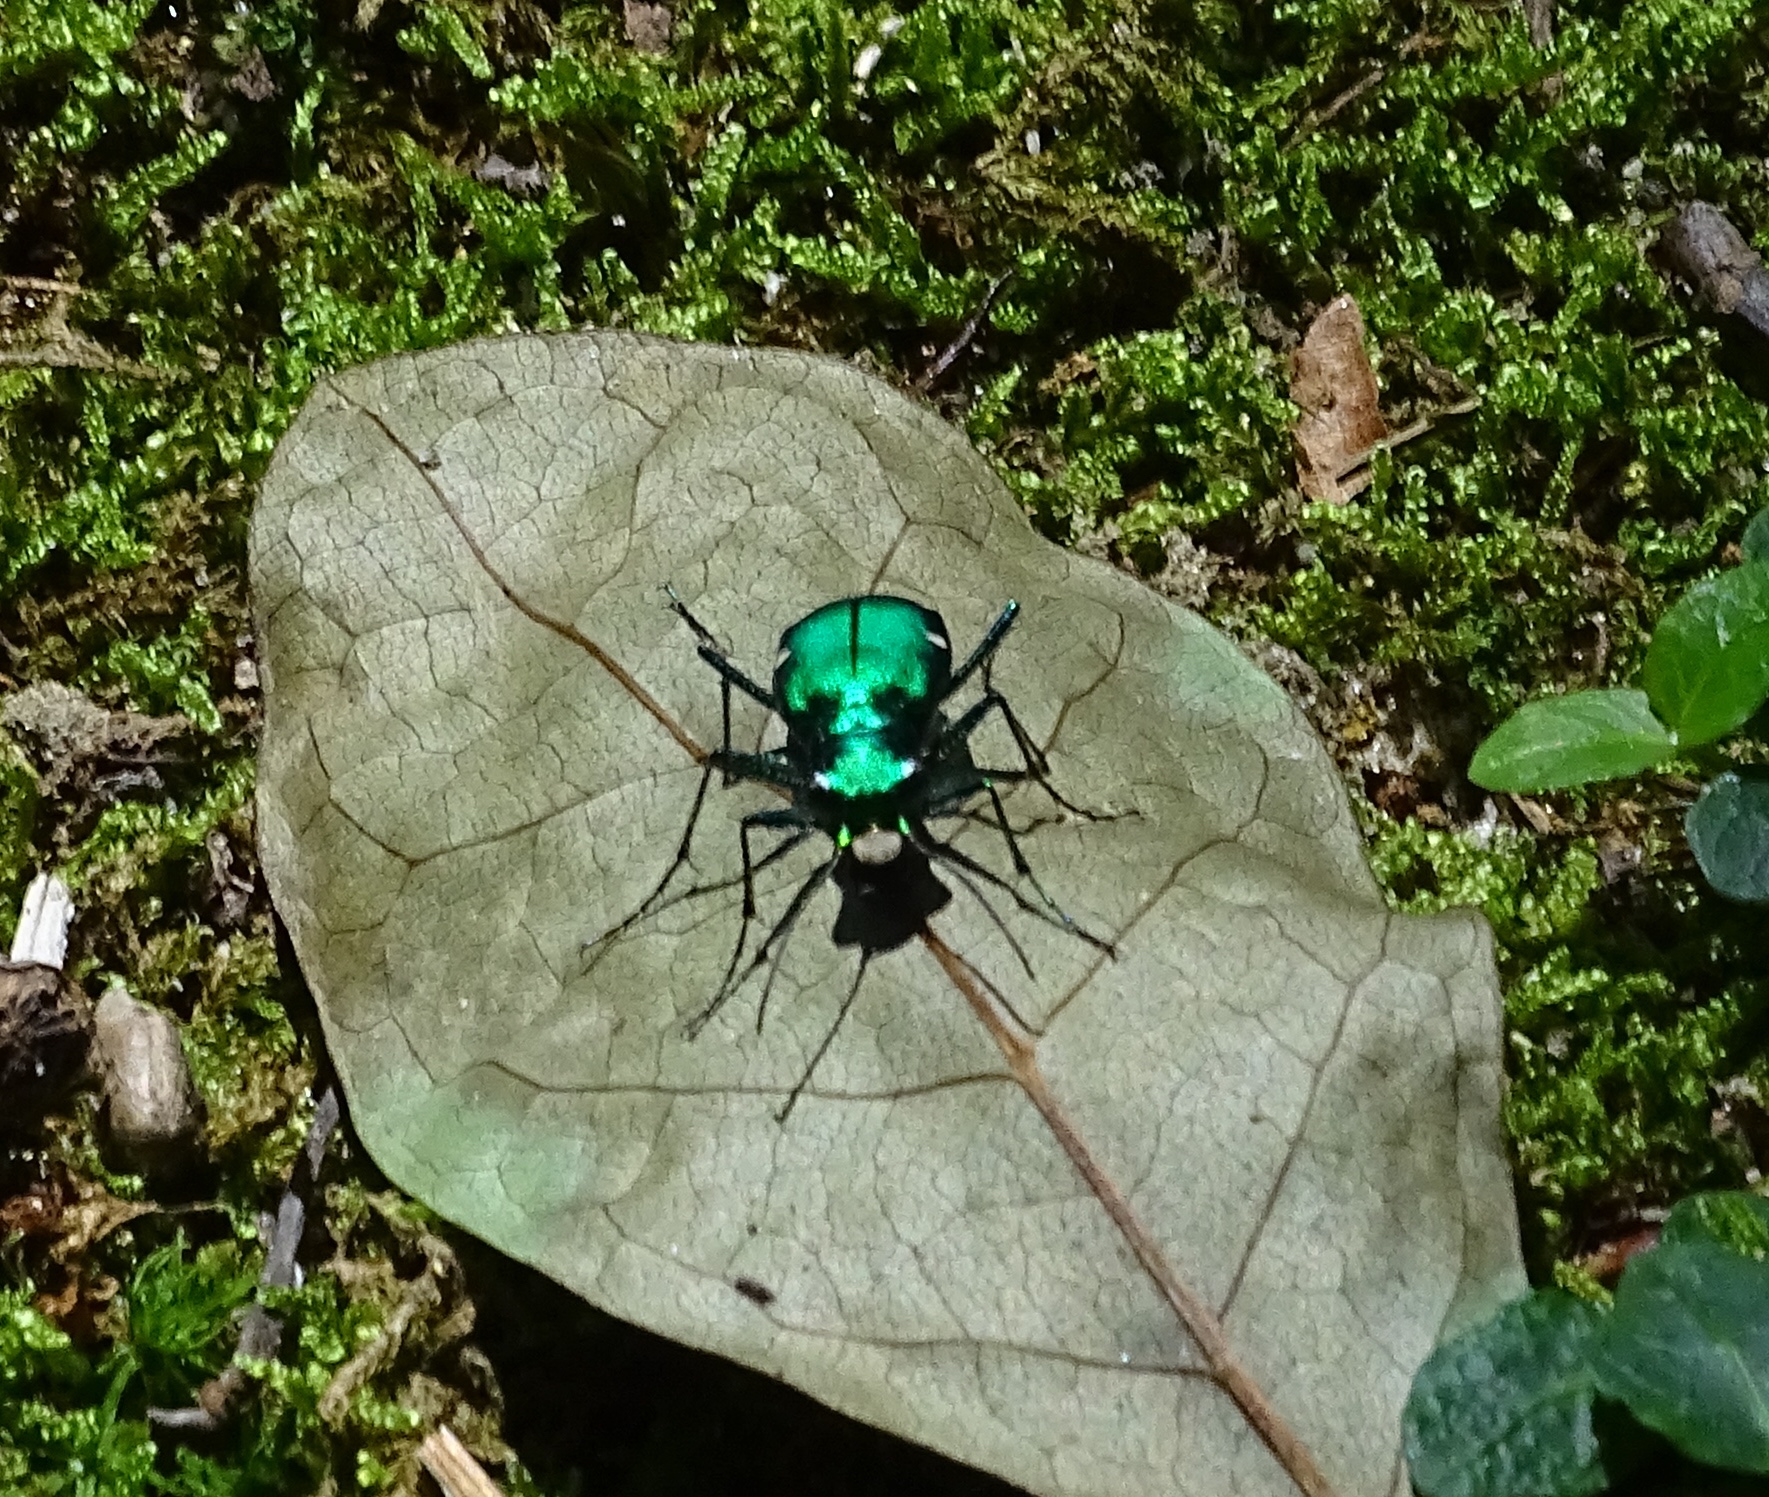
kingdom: Animalia
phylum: Arthropoda
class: Insecta
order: Coleoptera
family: Carabidae
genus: Cicindela
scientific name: Cicindela sexguttata
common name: Six-spotted tiger beetle
